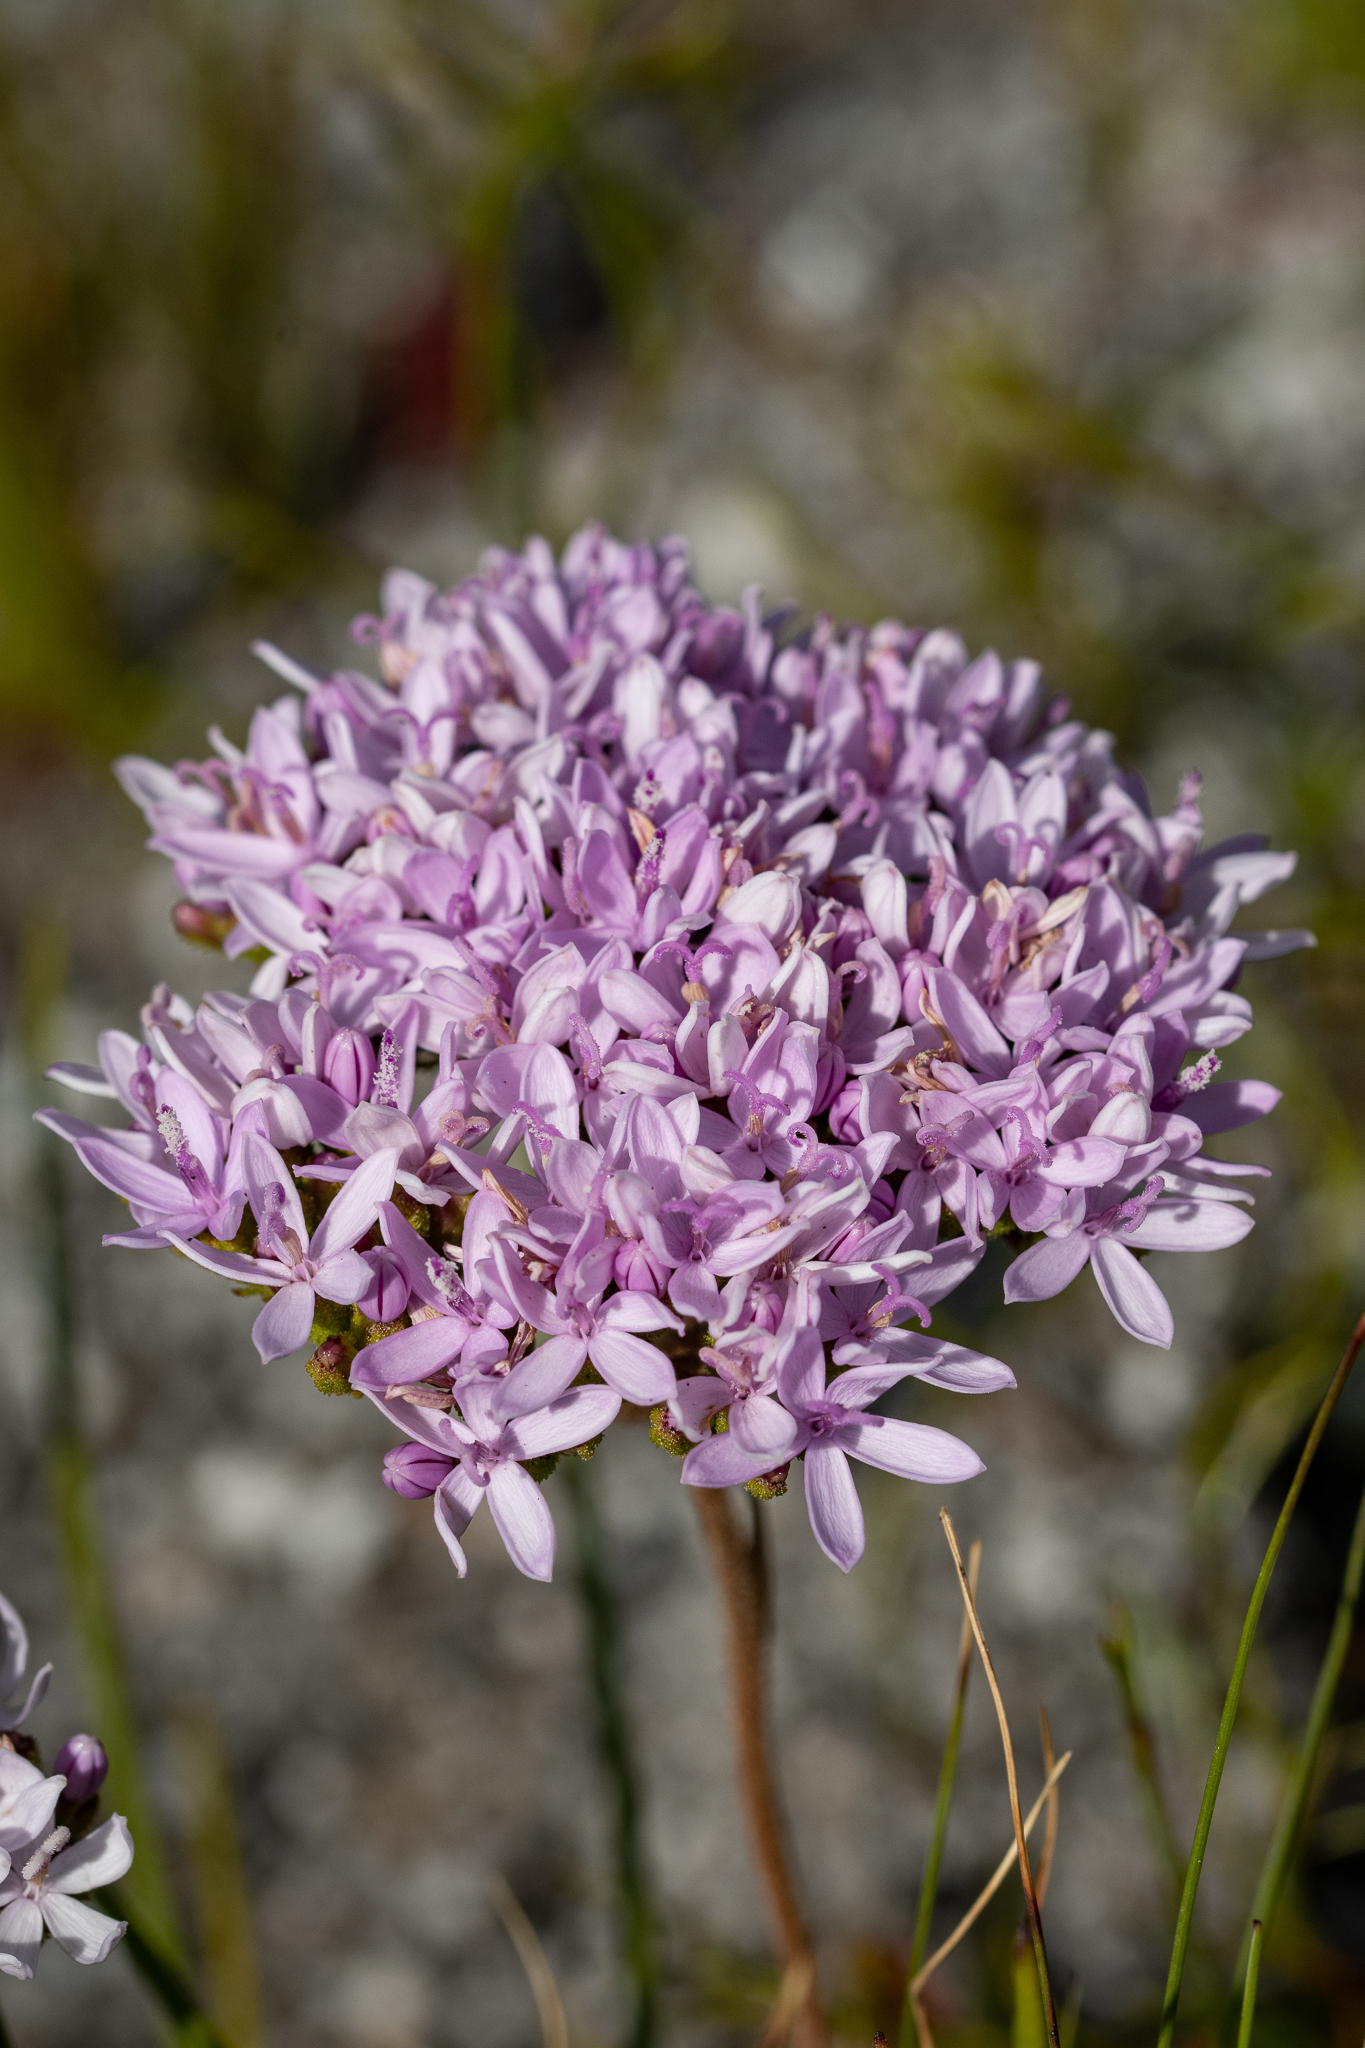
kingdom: Plantae
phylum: Tracheophyta
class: Magnoliopsida
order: Asterales
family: Asteraceae
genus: Corymbium
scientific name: Corymbium africanum
